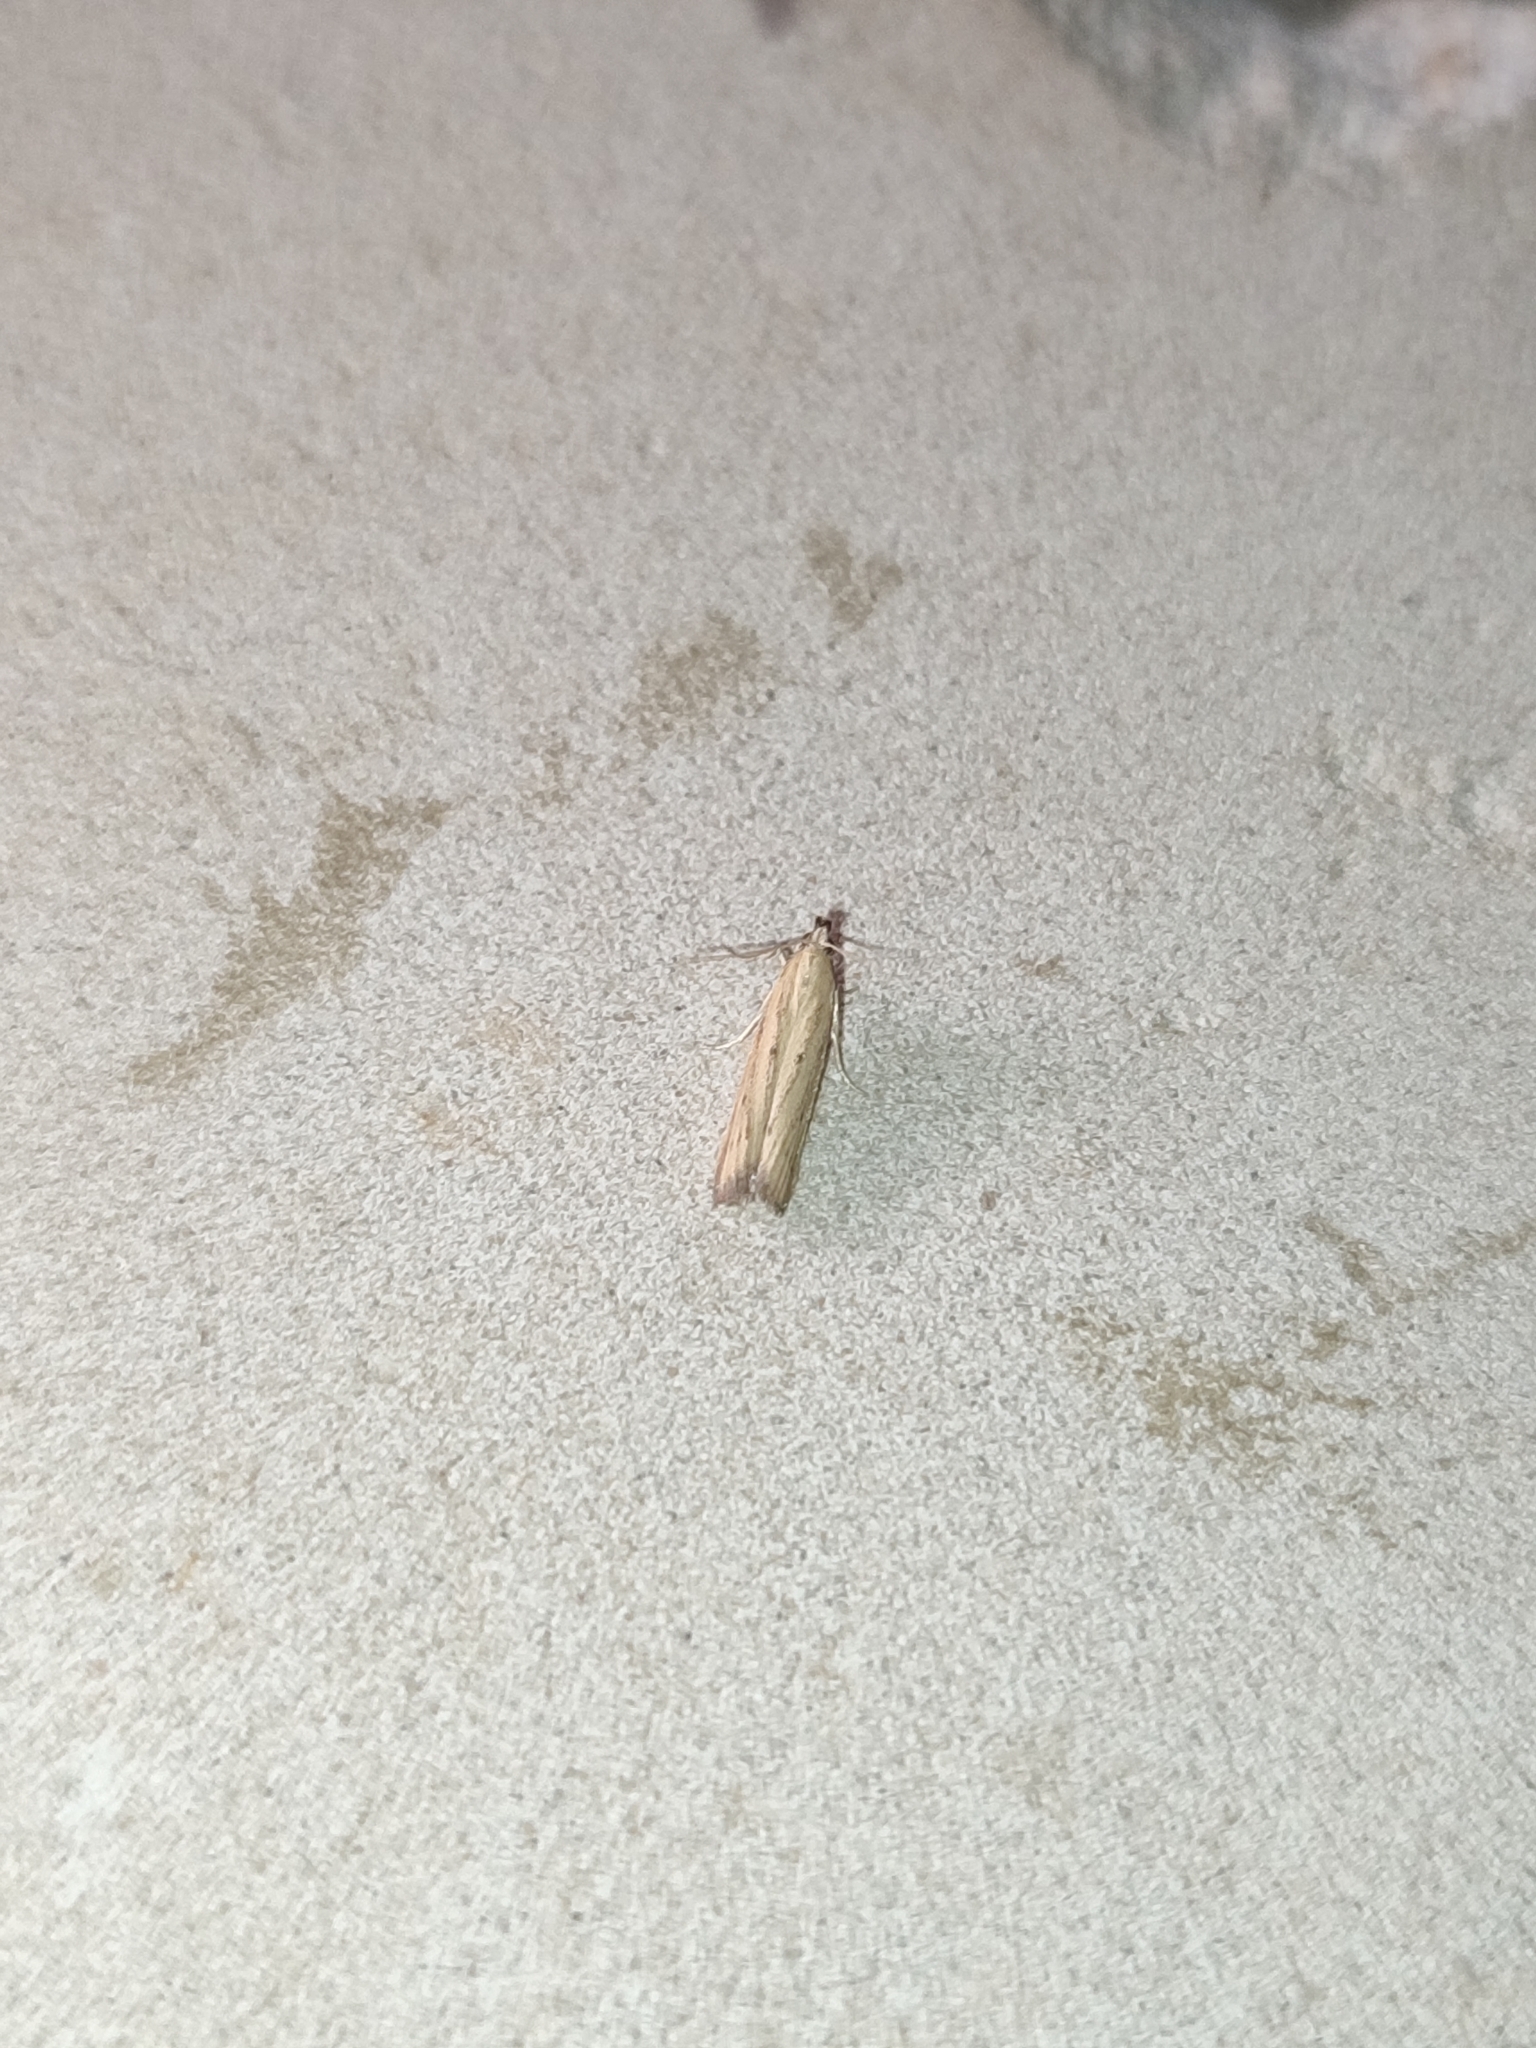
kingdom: Animalia
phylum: Arthropoda
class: Insecta
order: Lepidoptera
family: Pyralidae
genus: Hypsotropa
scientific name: Hypsotropa unipunctella
